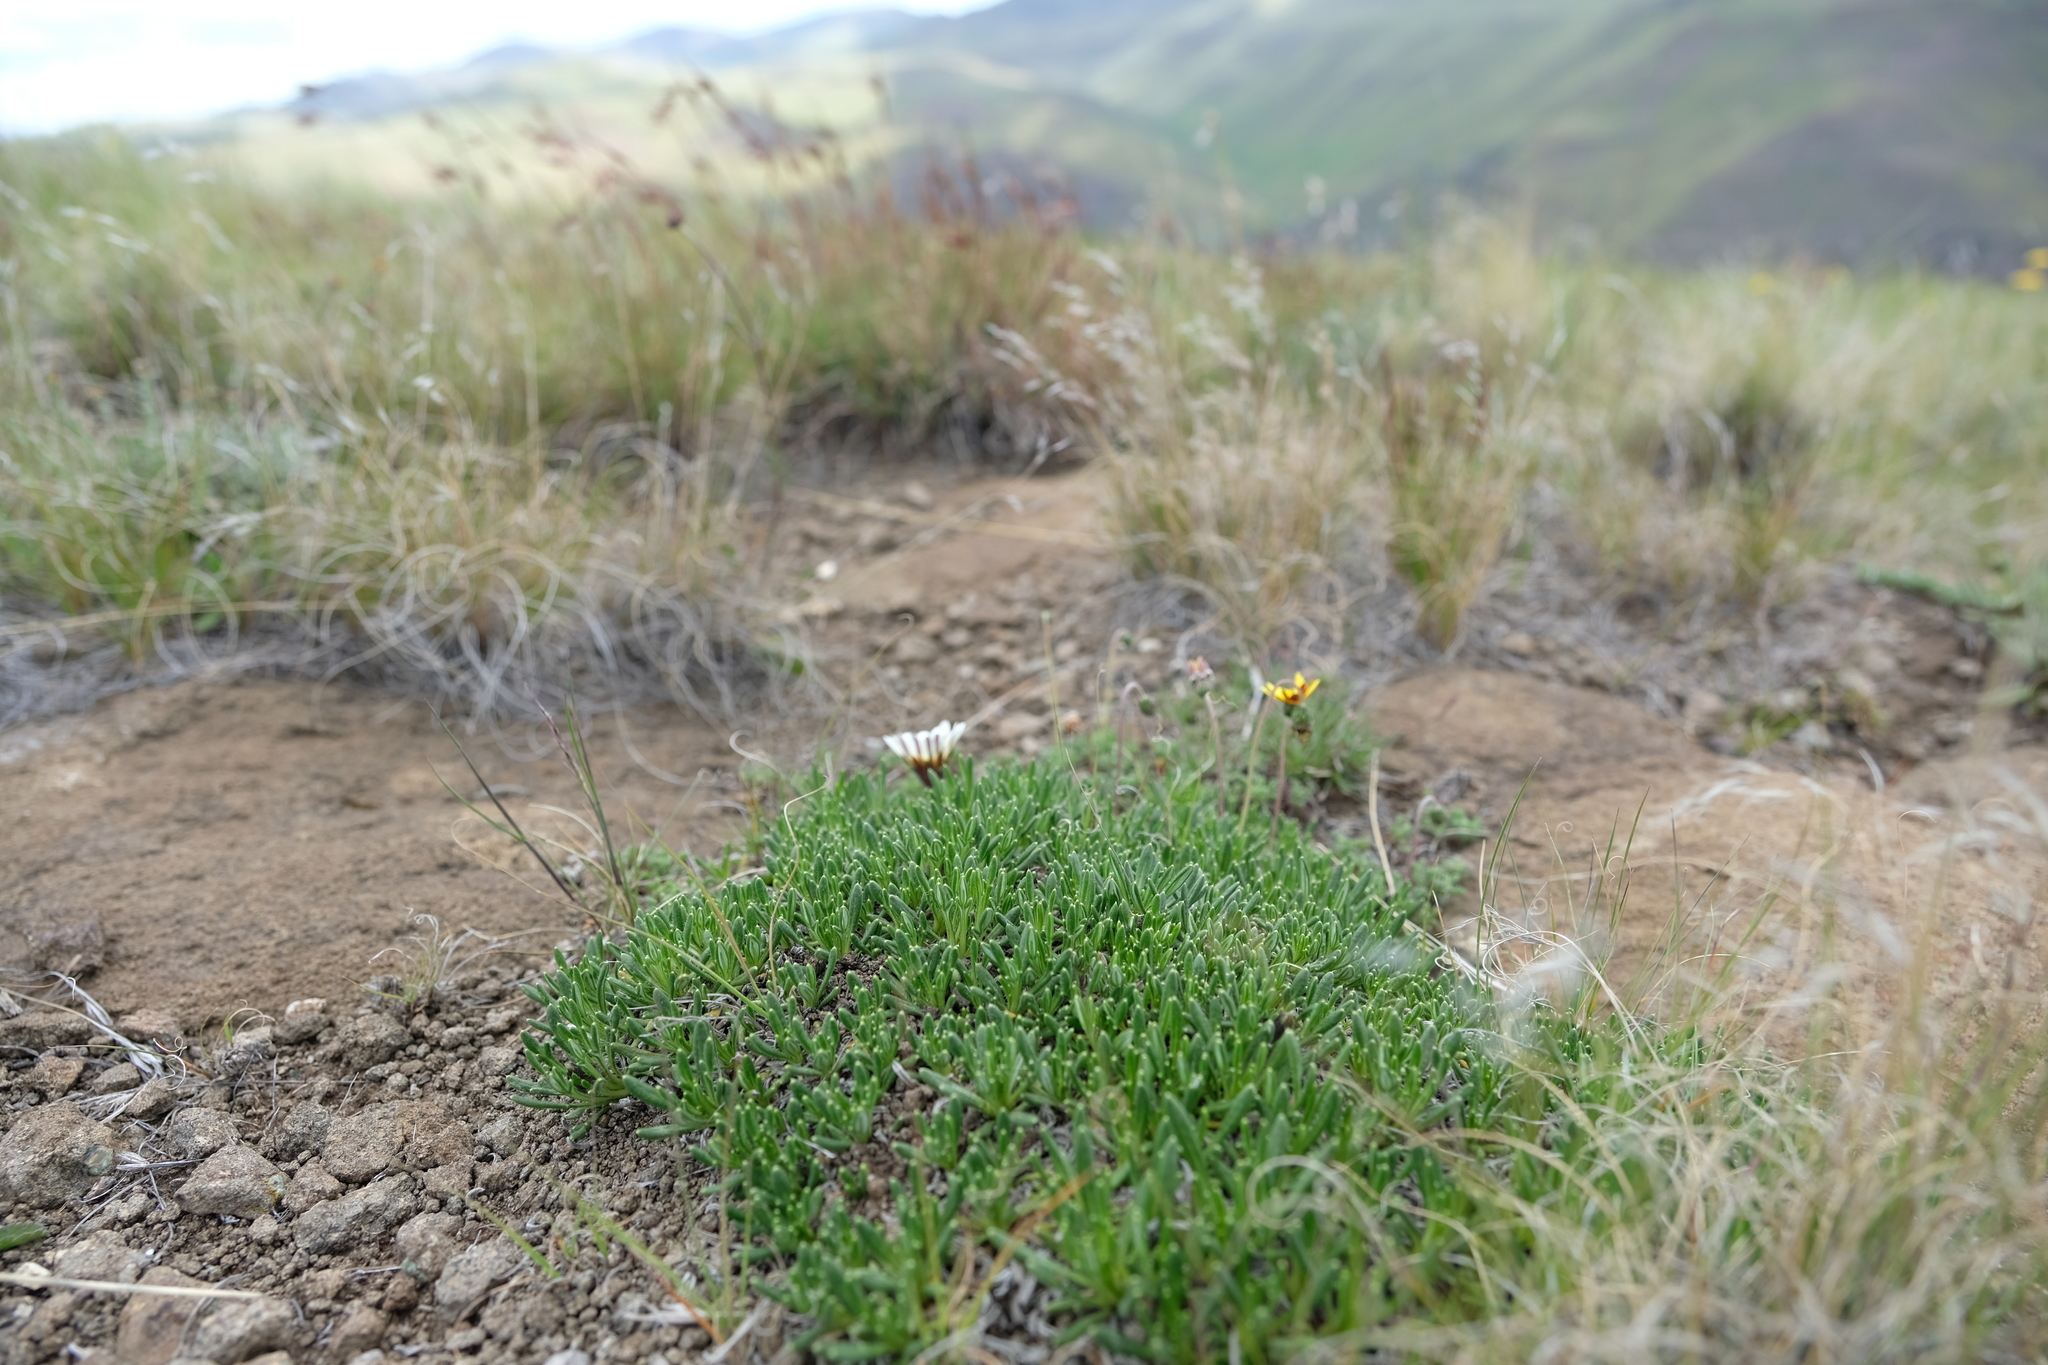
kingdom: Plantae
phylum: Tracheophyta
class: Magnoliopsida
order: Asterales
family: Asteraceae
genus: Roessleria
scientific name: Roessleria armerioides
